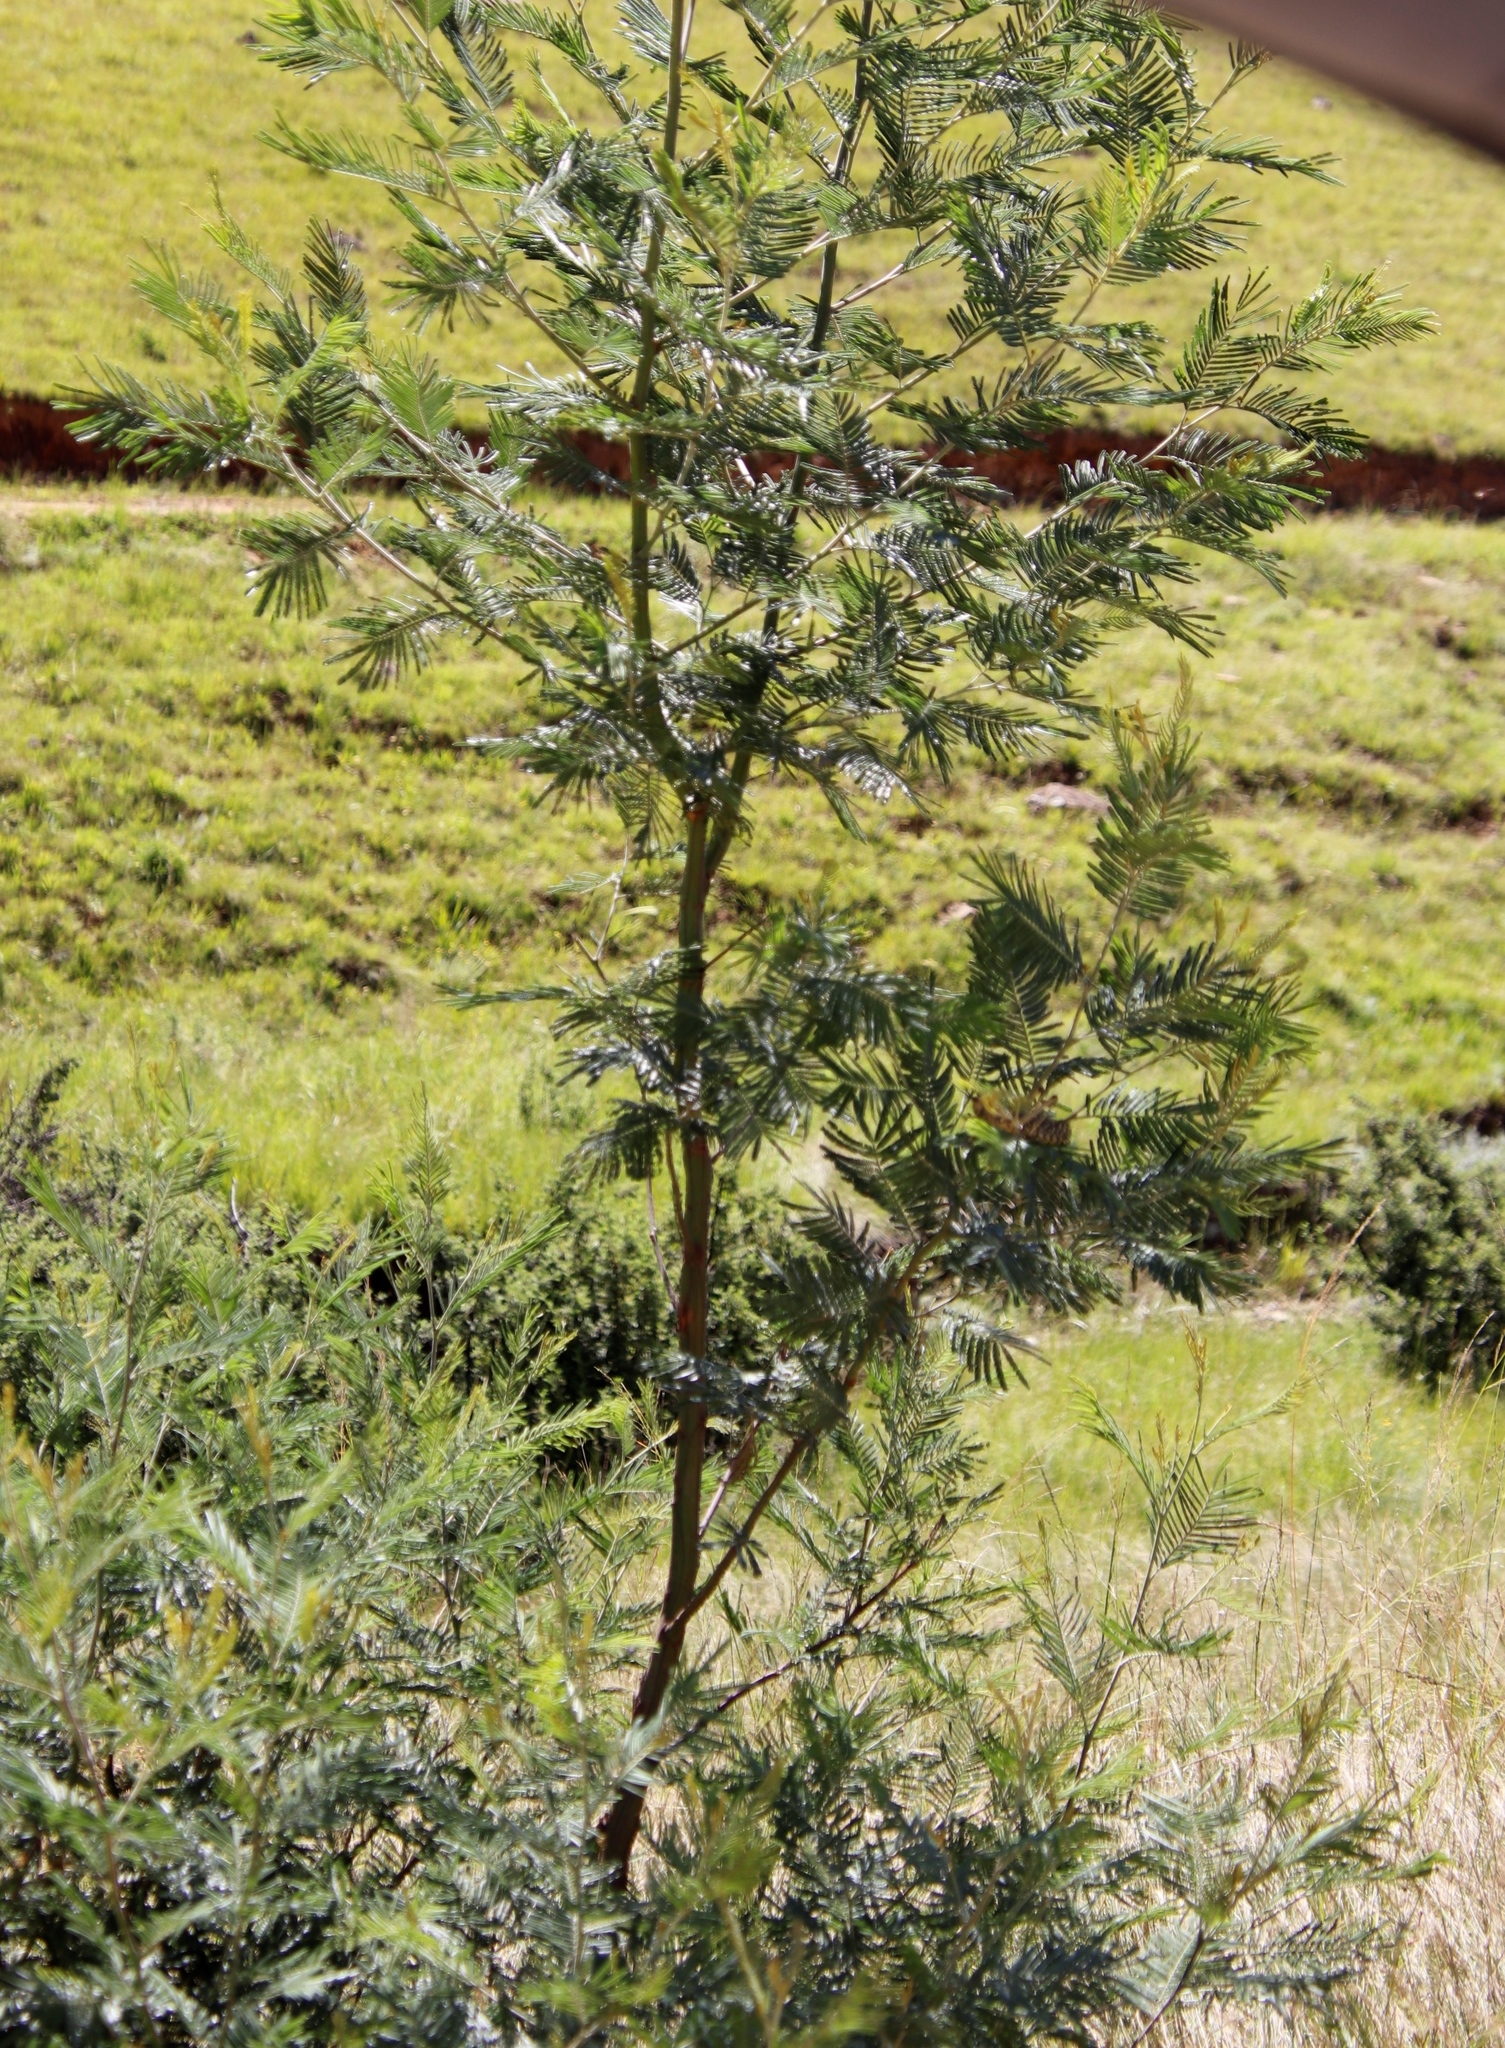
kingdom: Plantae
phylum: Tracheophyta
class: Magnoliopsida
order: Fabales
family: Fabaceae
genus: Acacia
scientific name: Acacia mearnsii
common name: Black wattle
